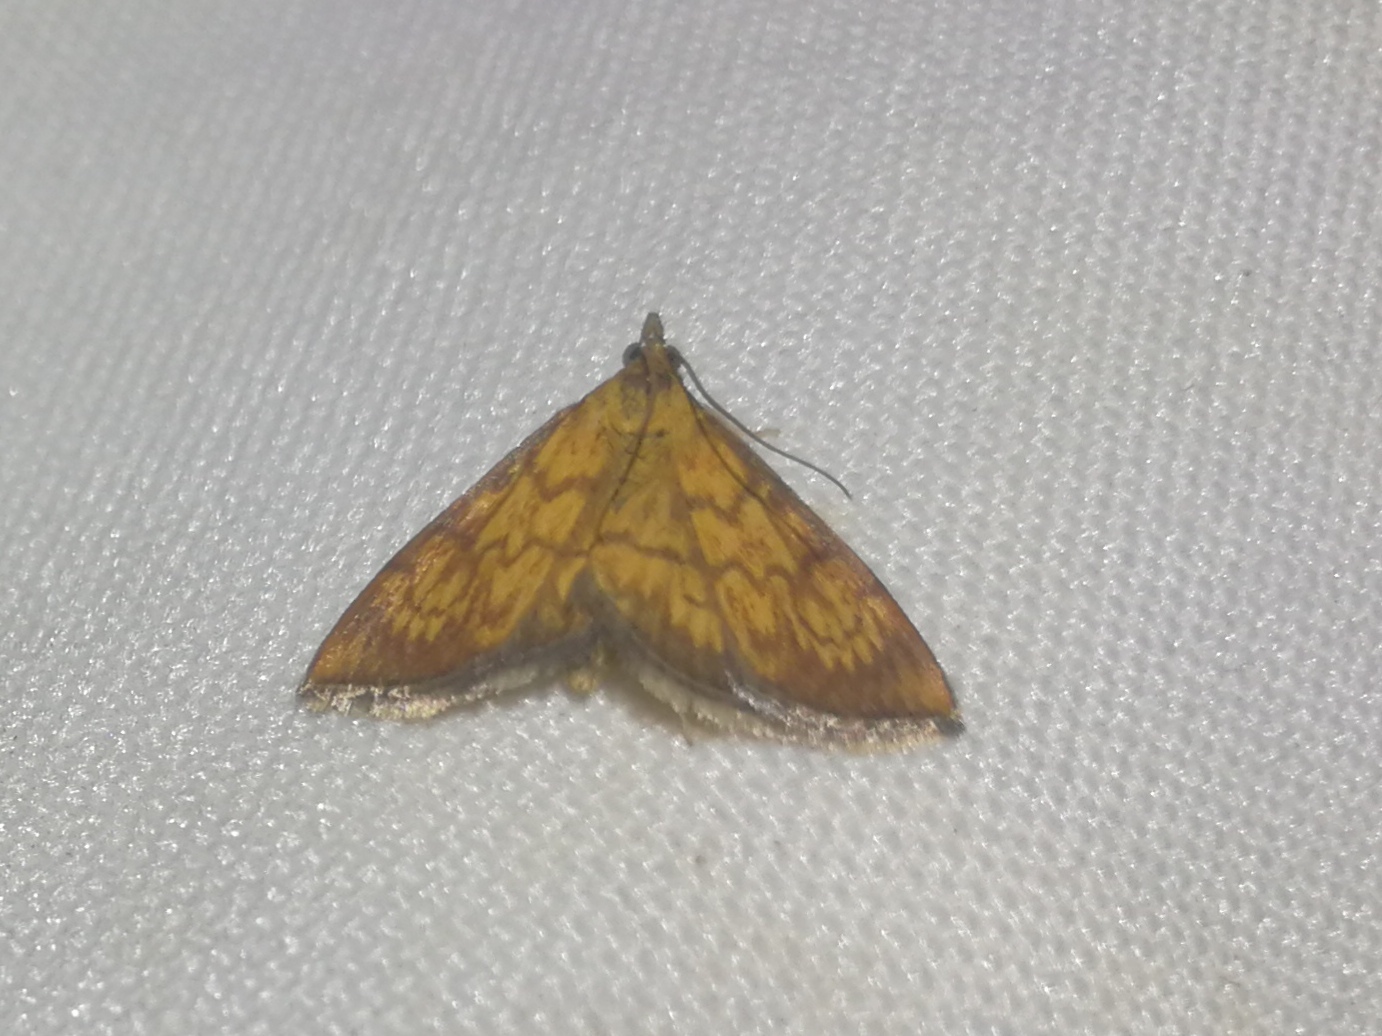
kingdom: Animalia
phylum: Arthropoda
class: Insecta
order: Lepidoptera
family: Crambidae
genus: Ecpyrrhorrhoe
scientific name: Ecpyrrhorrhoe rubiginalis
